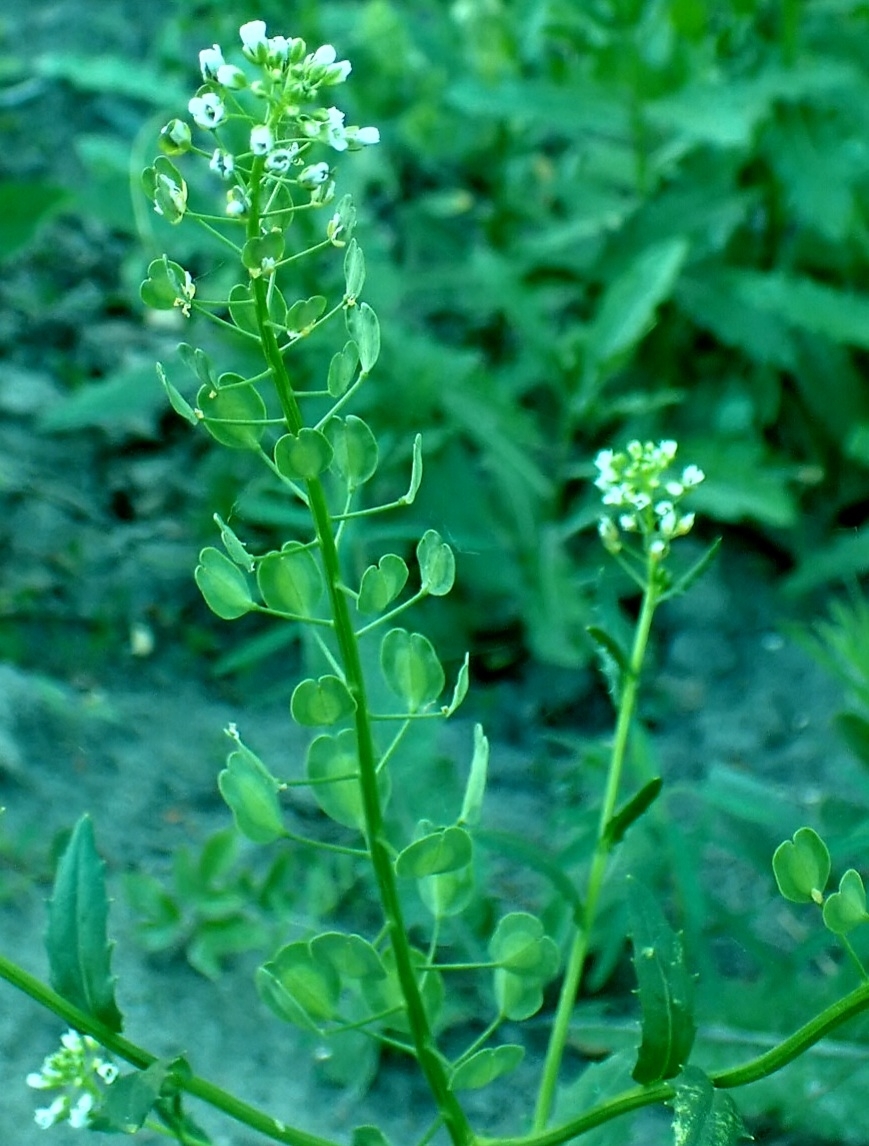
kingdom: Plantae
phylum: Tracheophyta
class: Magnoliopsida
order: Brassicales
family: Brassicaceae
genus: Thlaspi
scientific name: Thlaspi arvense
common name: Field pennycress
